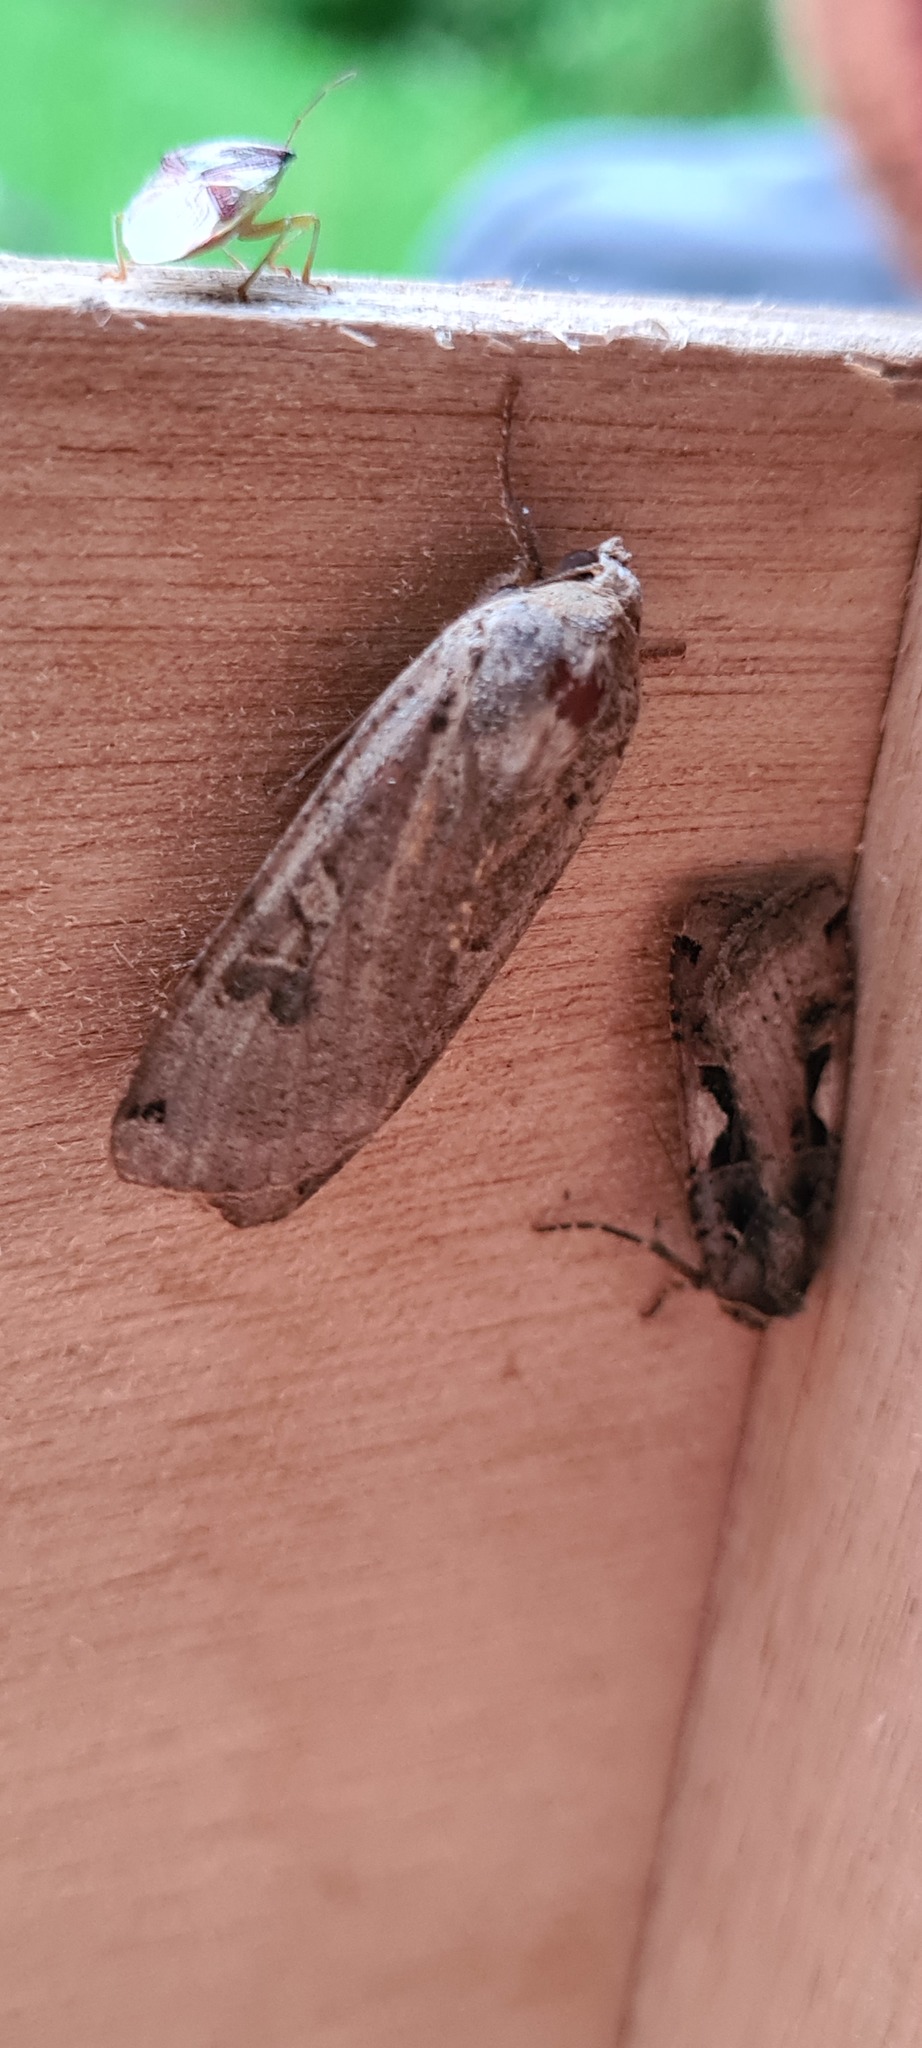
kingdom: Animalia
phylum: Arthropoda
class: Insecta
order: Lepidoptera
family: Noctuidae
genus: Noctua
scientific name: Noctua pronuba
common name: Large yellow underwing
